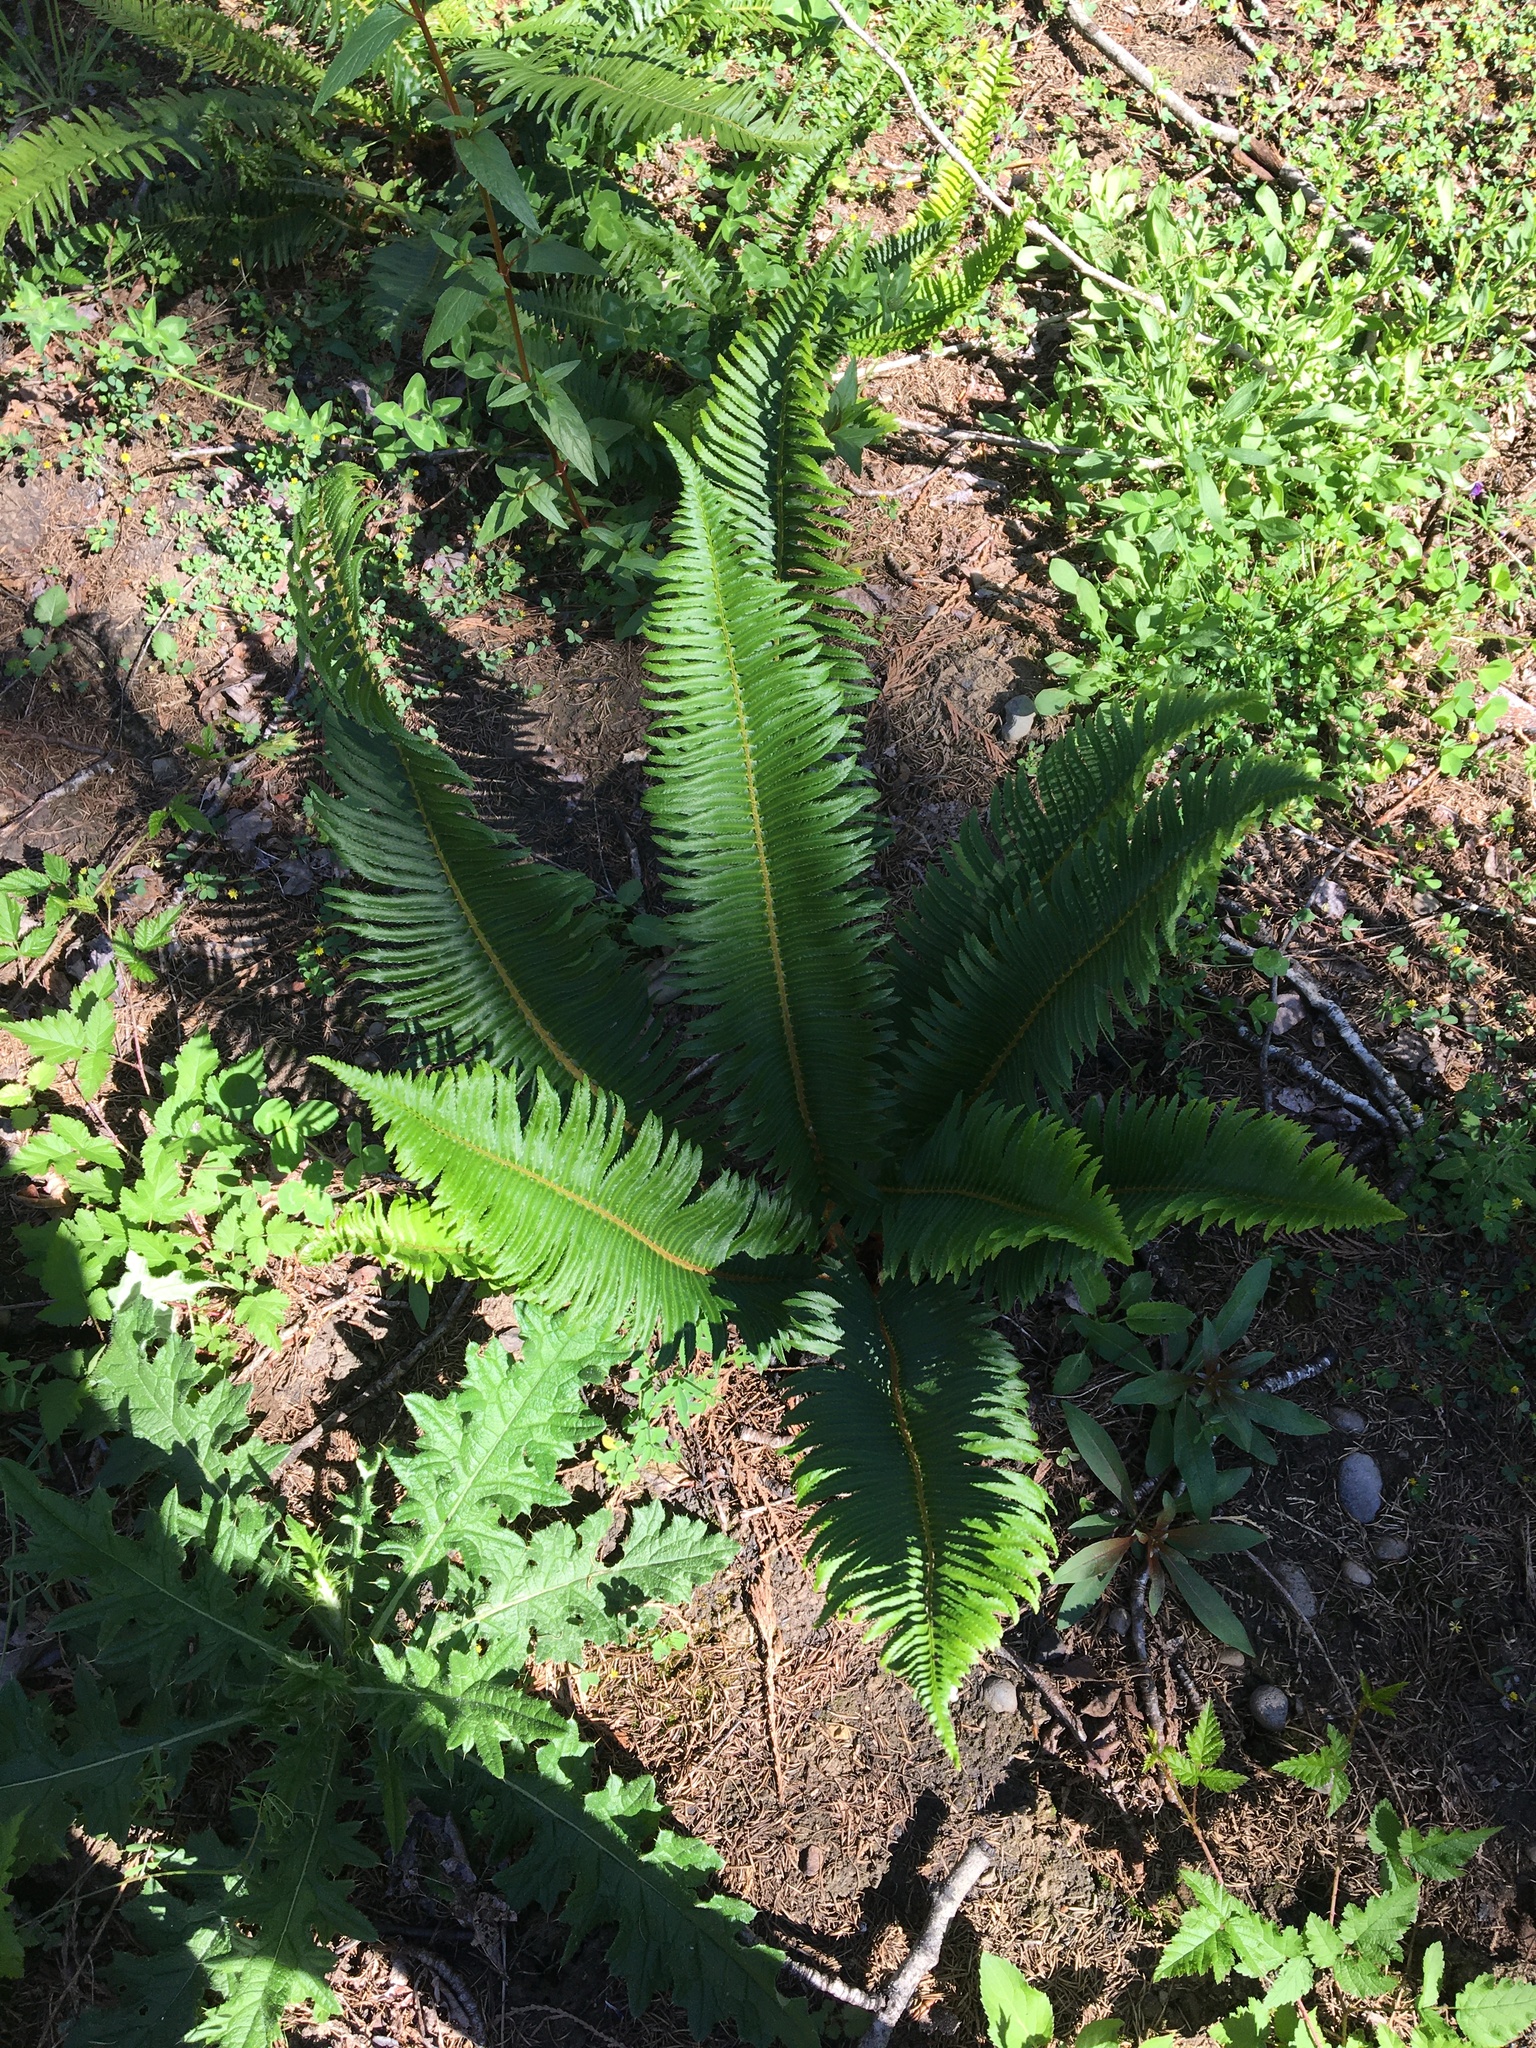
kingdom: Plantae
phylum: Tracheophyta
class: Polypodiopsida
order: Polypodiales
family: Dryopteridaceae
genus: Polystichum
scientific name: Polystichum munitum
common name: Western sword-fern
